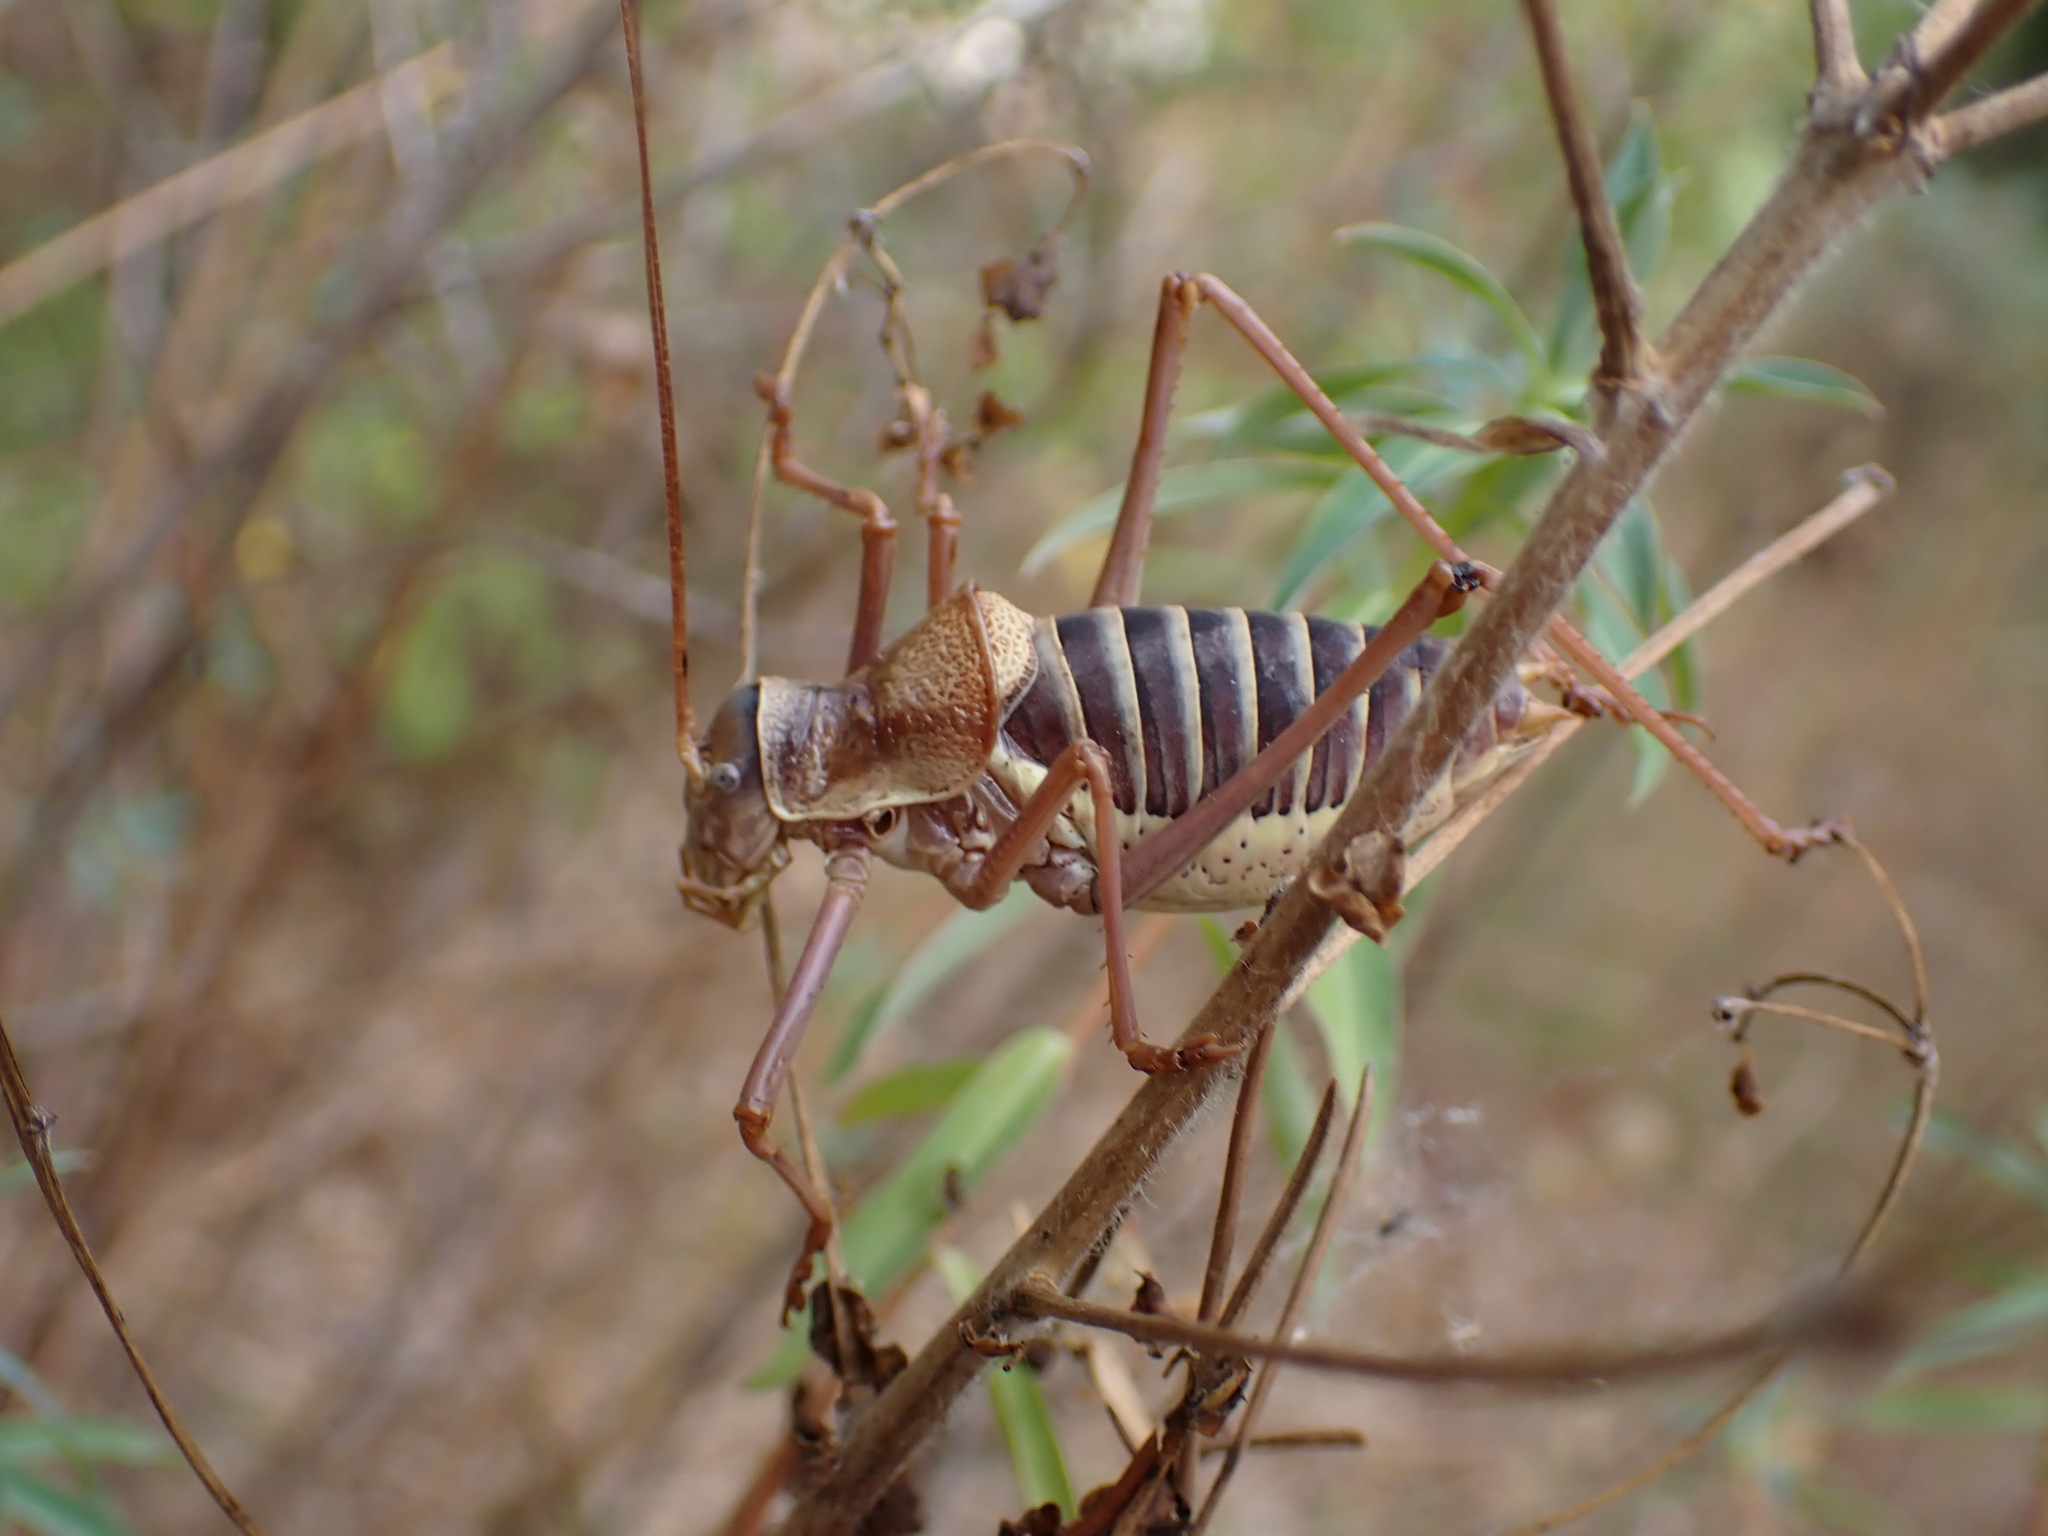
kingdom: Animalia
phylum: Arthropoda
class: Insecta
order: Orthoptera
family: Tettigoniidae
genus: Ephippiger
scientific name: Ephippiger diurnus
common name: Western saddle bush-cricket
